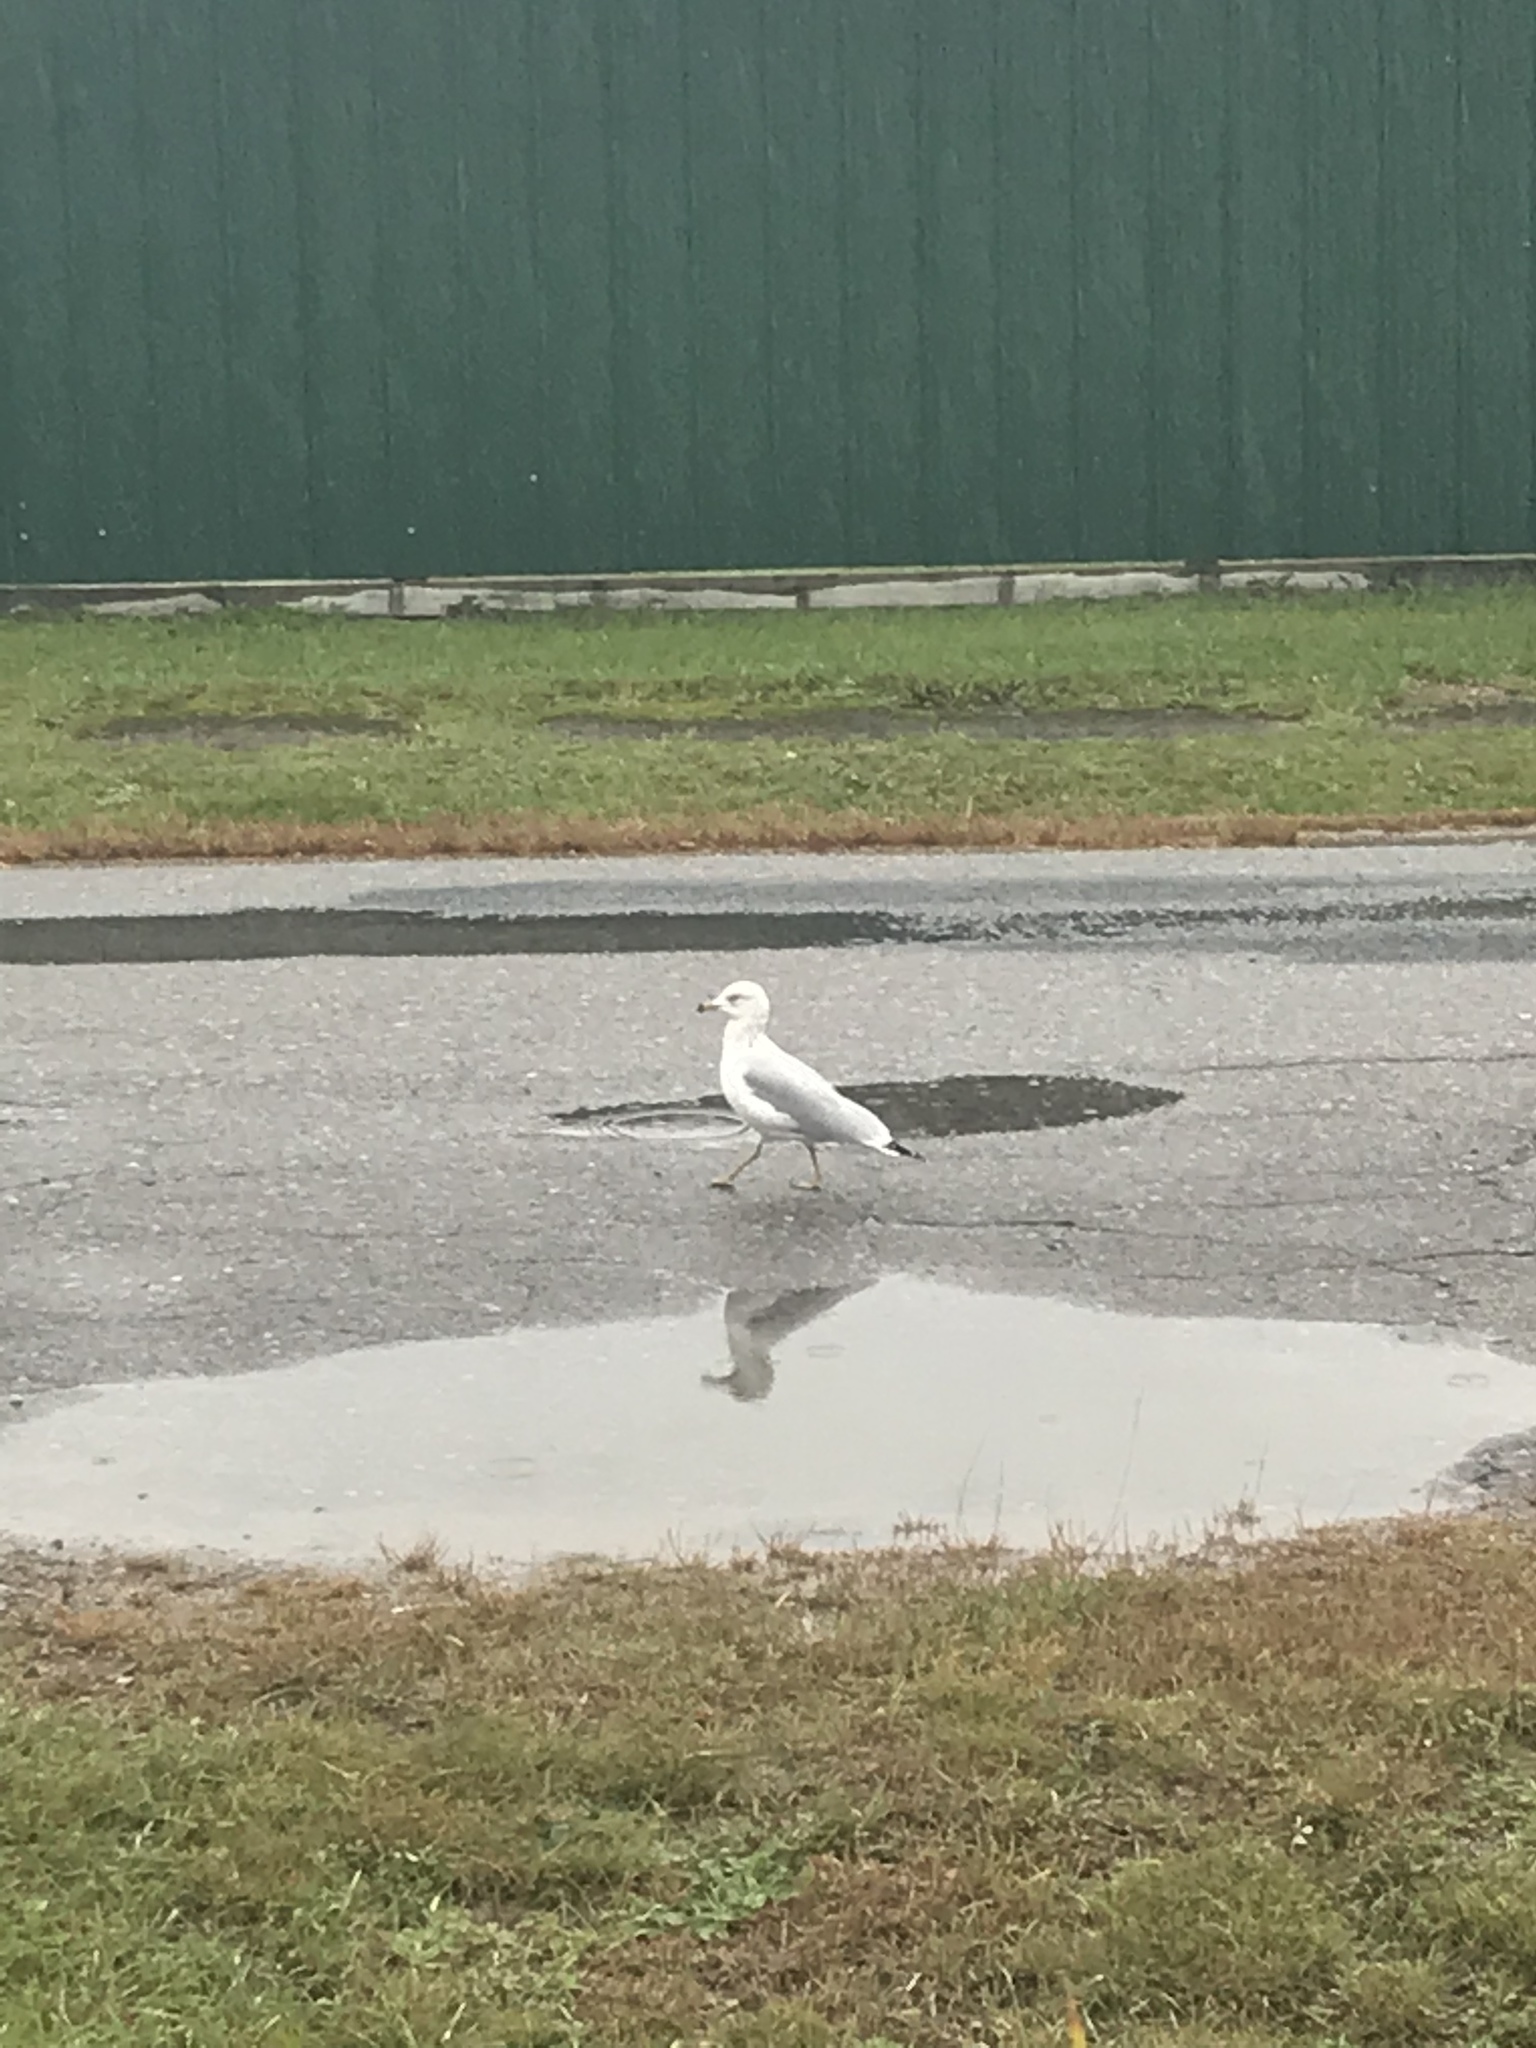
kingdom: Animalia
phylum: Chordata
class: Aves
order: Charadriiformes
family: Laridae
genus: Larus
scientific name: Larus delawarensis
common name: Ring-billed gull
